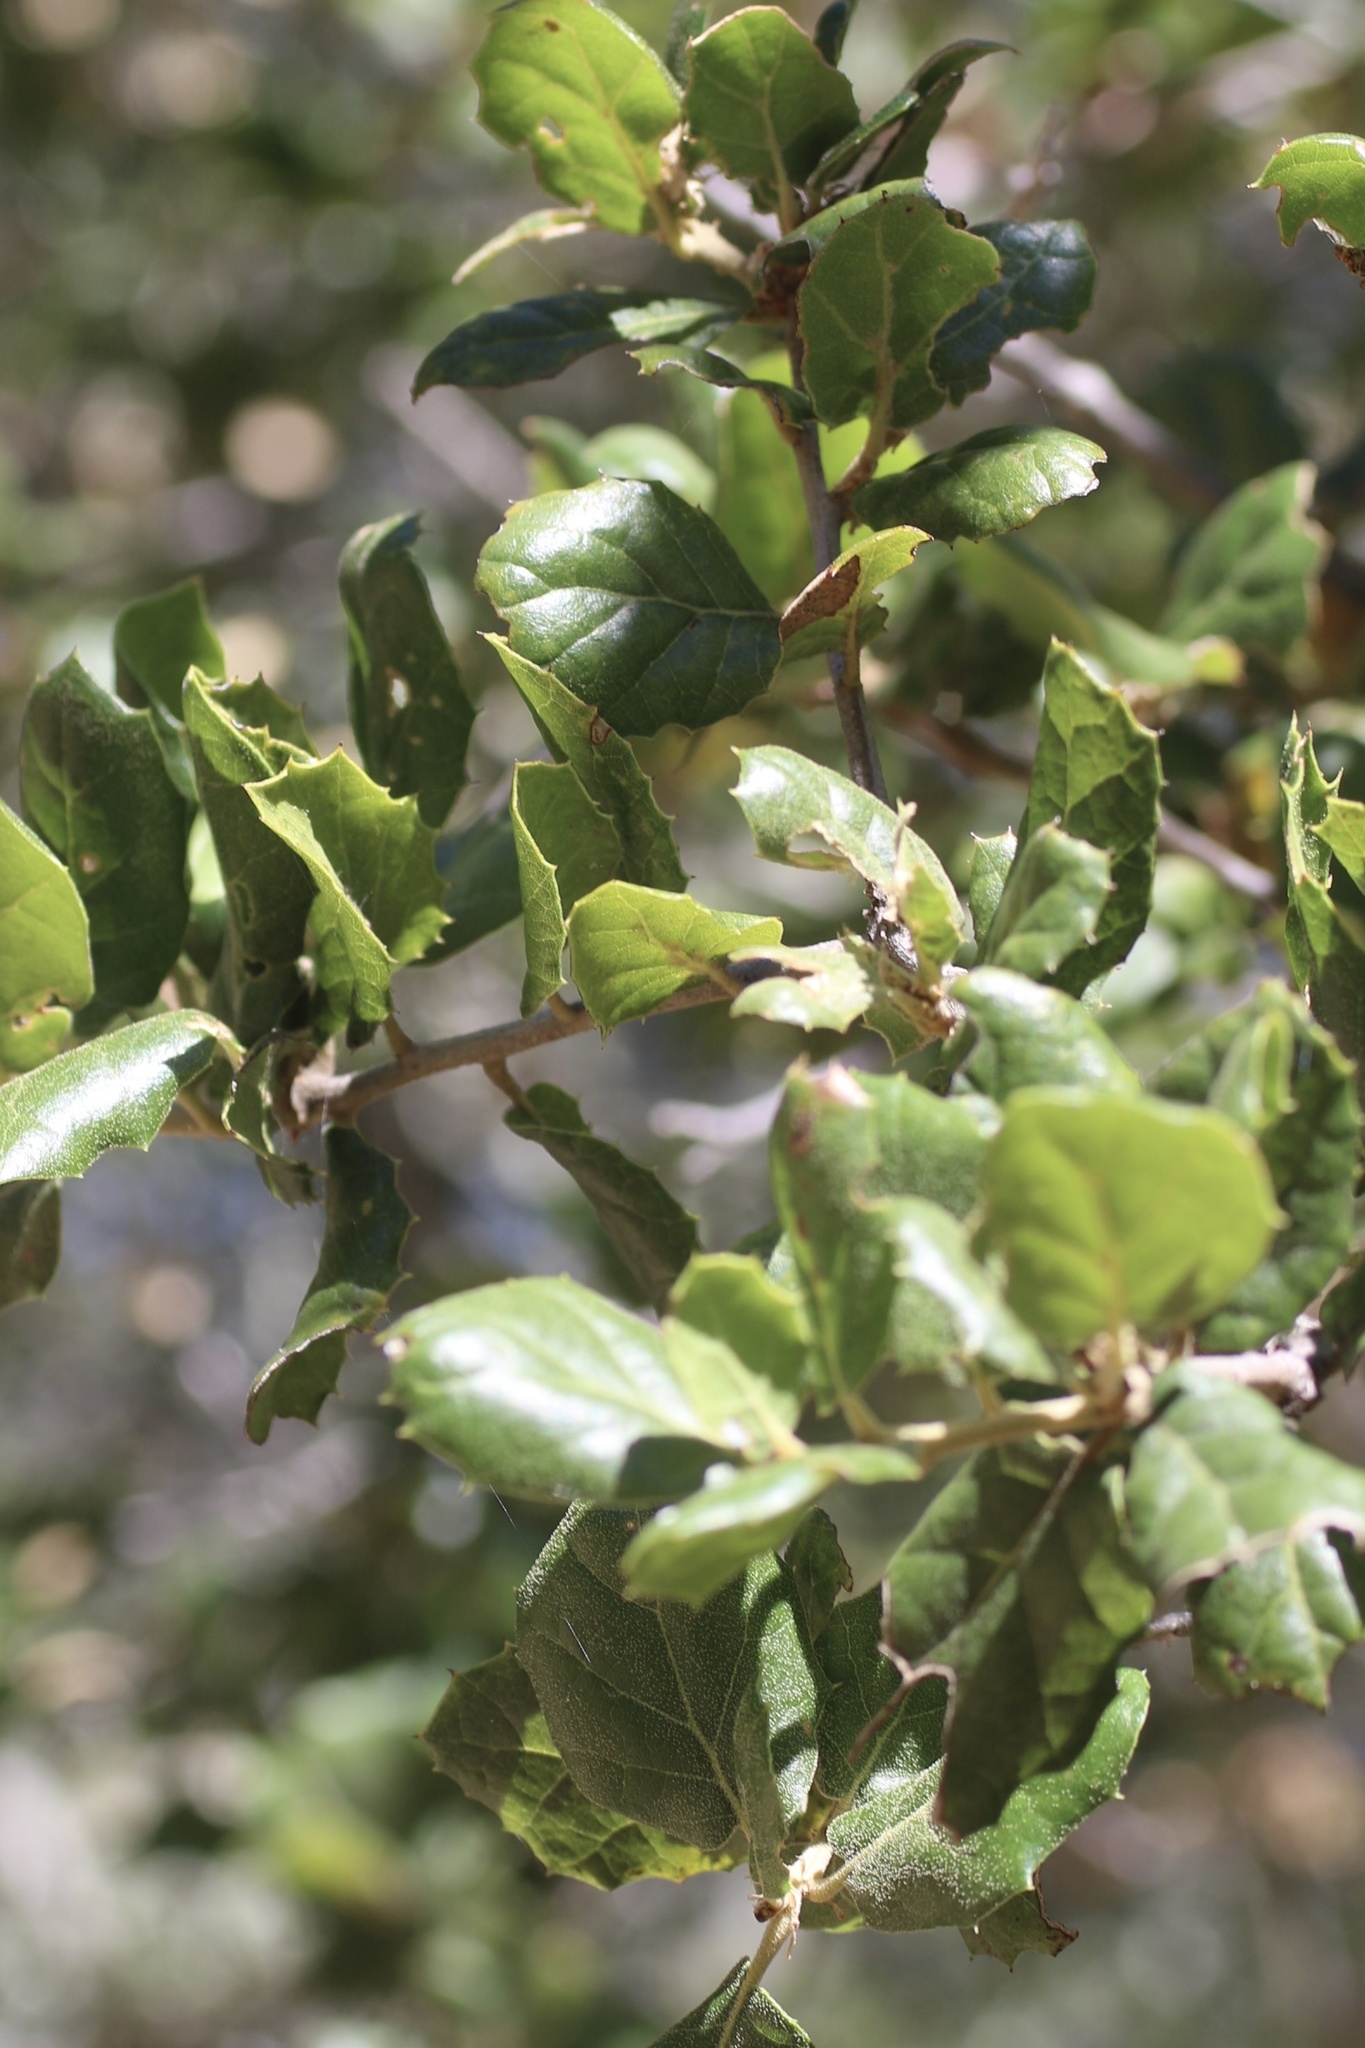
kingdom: Plantae
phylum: Tracheophyta
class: Magnoliopsida
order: Fagales
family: Fagaceae
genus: Quercus
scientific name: Quercus agrifolia
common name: California live oak
